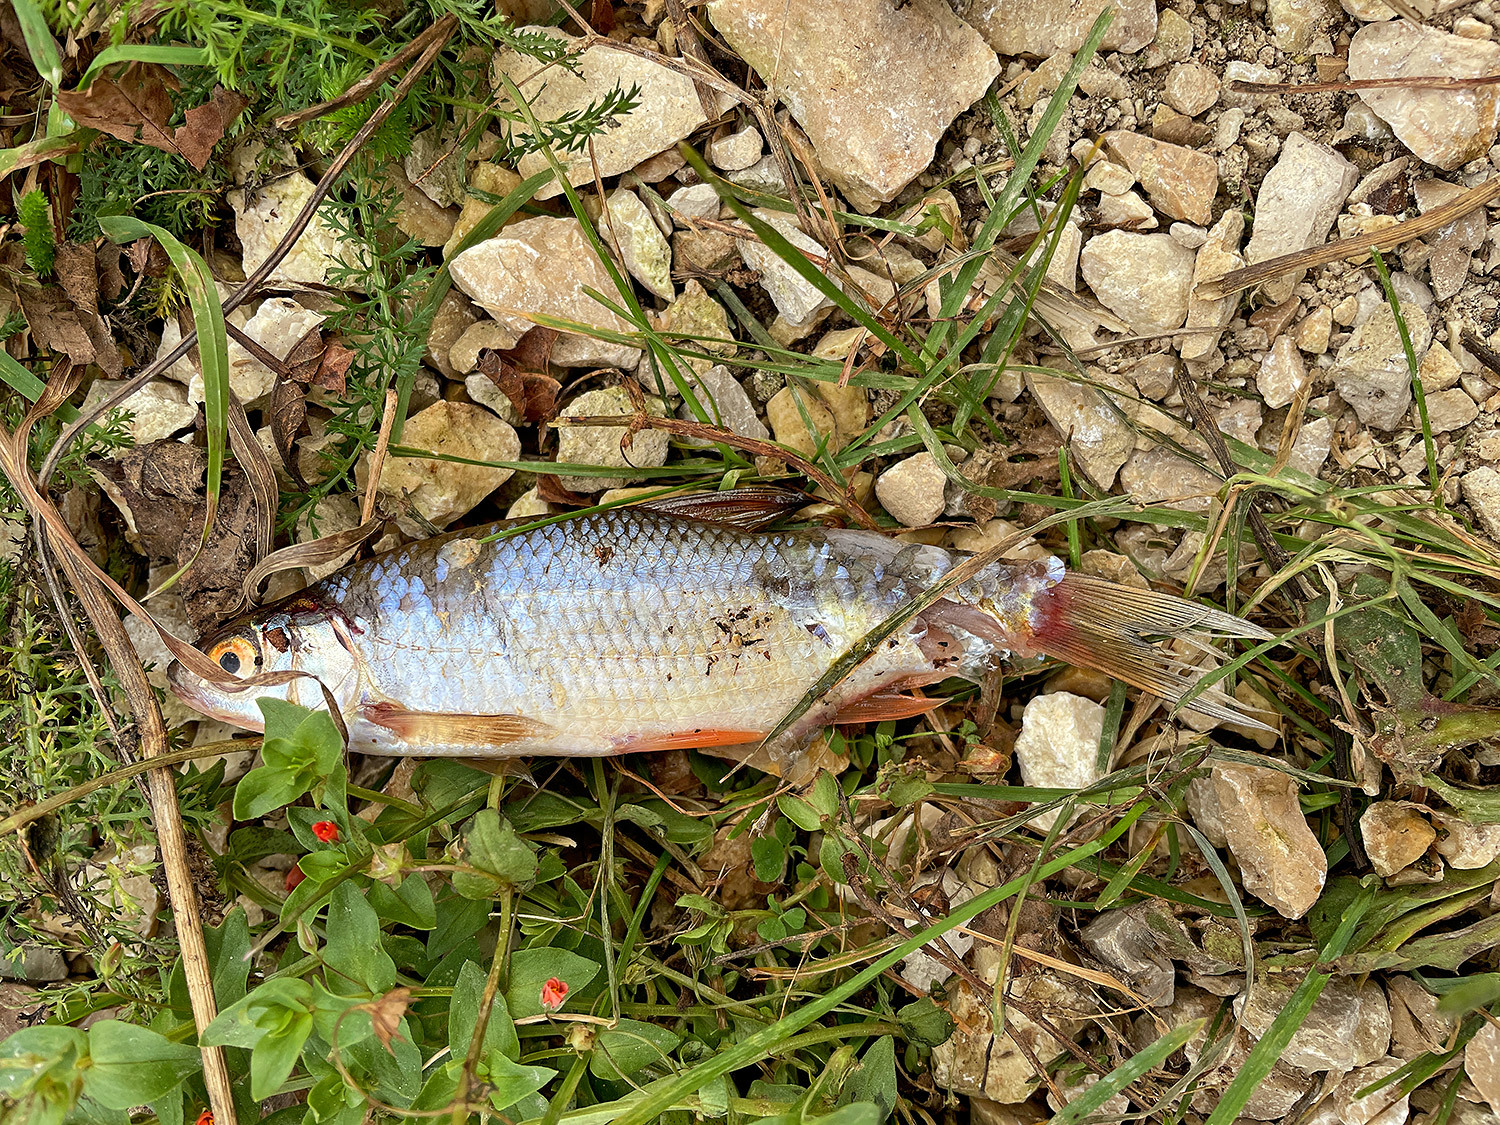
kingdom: Animalia
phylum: Chordata
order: Cypriniformes
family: Cyprinidae
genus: Rutilus
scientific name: Rutilus rutilus
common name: Roach
